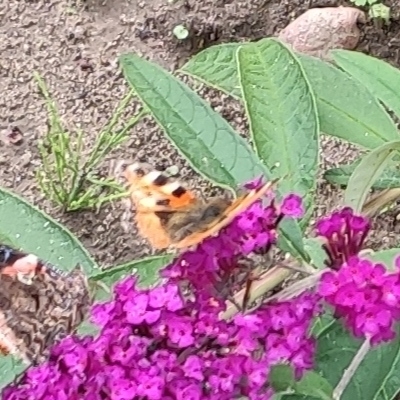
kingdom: Animalia
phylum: Arthropoda
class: Insecta
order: Lepidoptera
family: Nymphalidae
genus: Aglais
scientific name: Aglais urticae
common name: Small tortoiseshell
